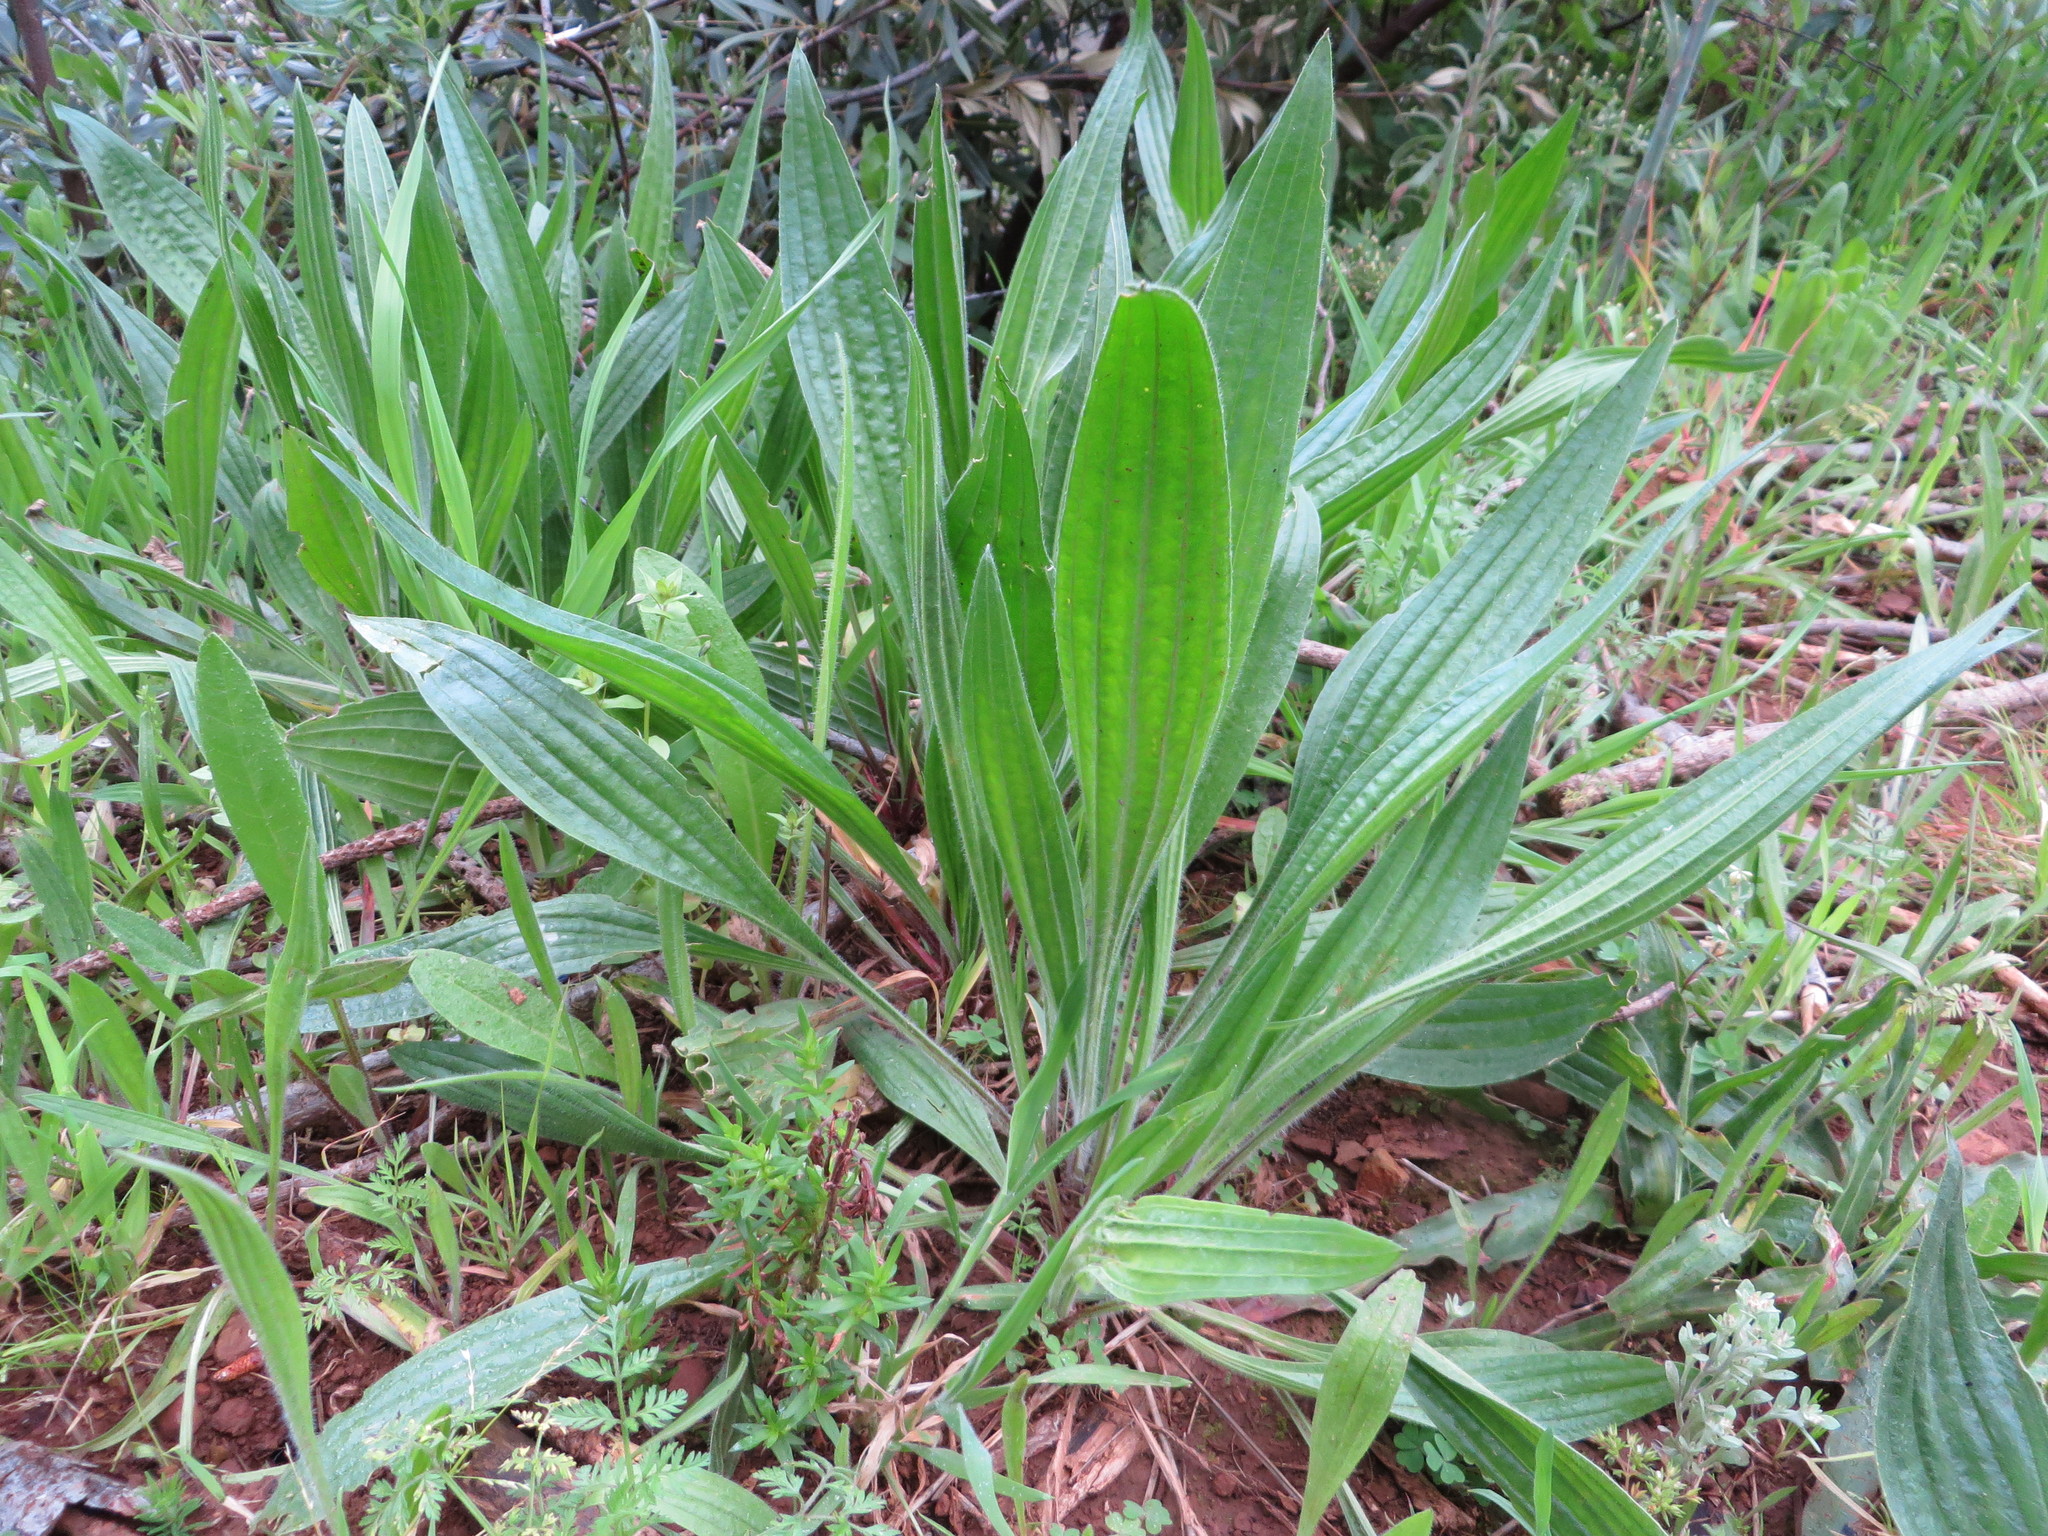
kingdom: Plantae
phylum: Tracheophyta
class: Magnoliopsida
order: Lamiales
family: Plantaginaceae
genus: Plantago
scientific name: Plantago lanceolata
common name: Ribwort plantain
